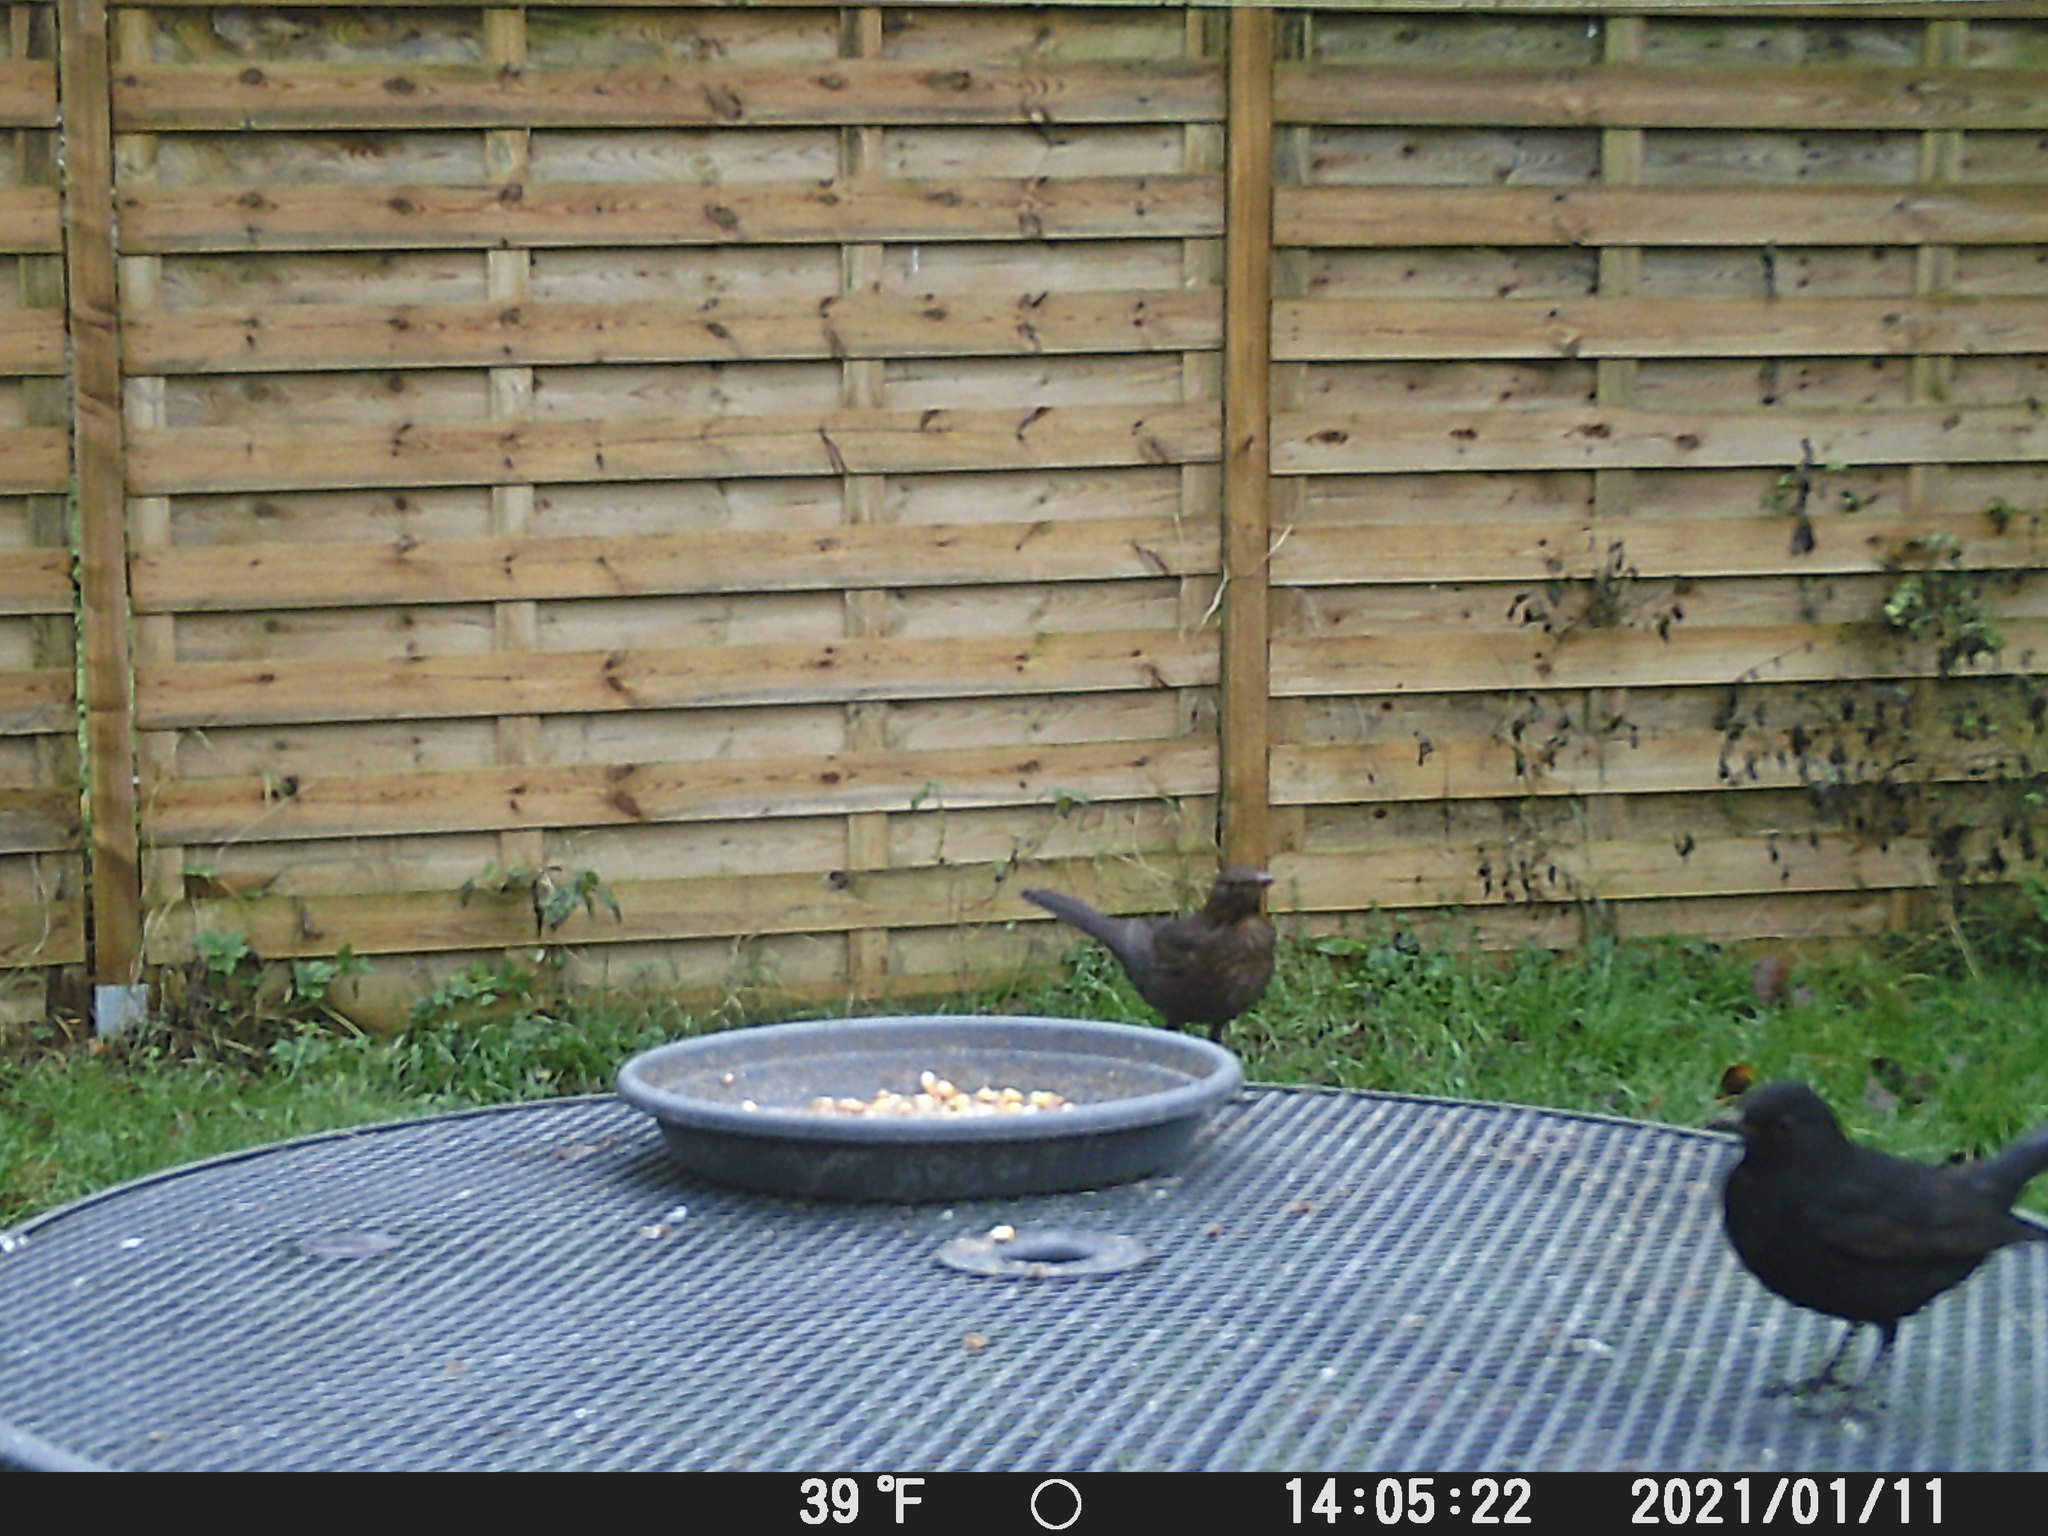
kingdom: Animalia
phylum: Chordata
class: Aves
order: Passeriformes
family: Turdidae
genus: Turdus
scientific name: Turdus merula
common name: Common blackbird
